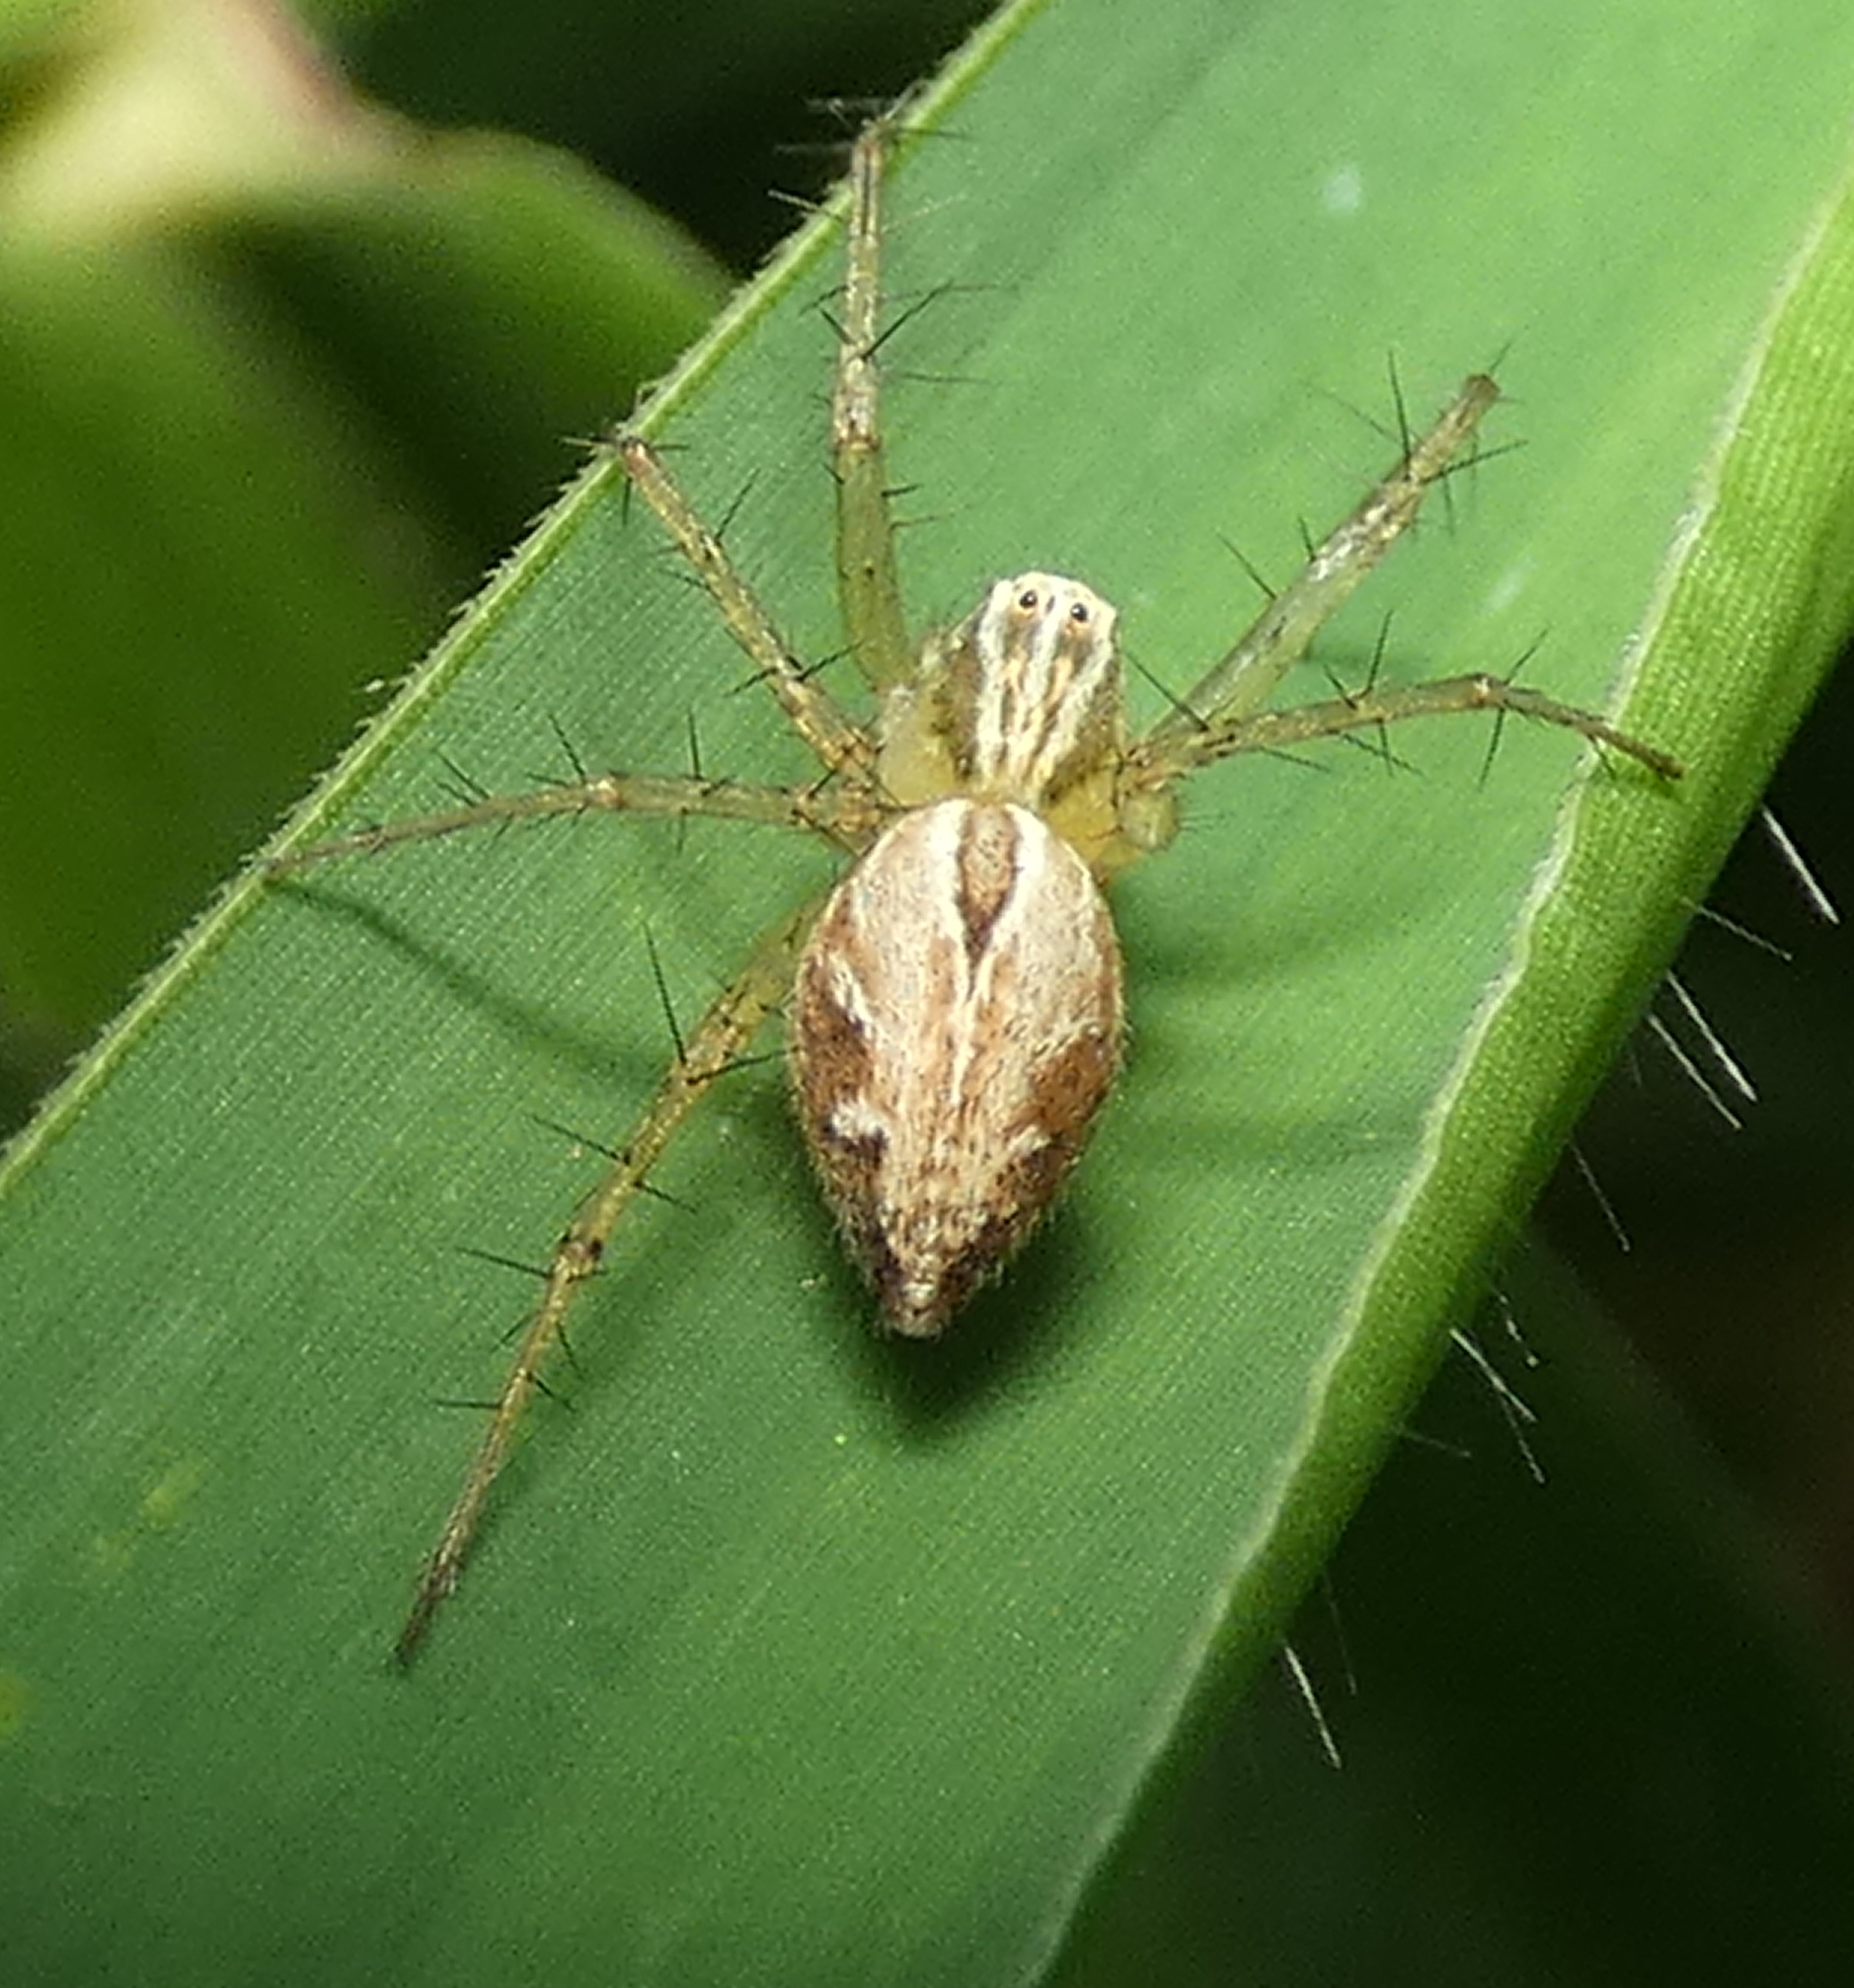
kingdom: Animalia
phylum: Arthropoda
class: Arachnida
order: Araneae
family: Oxyopidae
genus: Oxyopes
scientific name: Oxyopes salticus
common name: Lynx spiders
